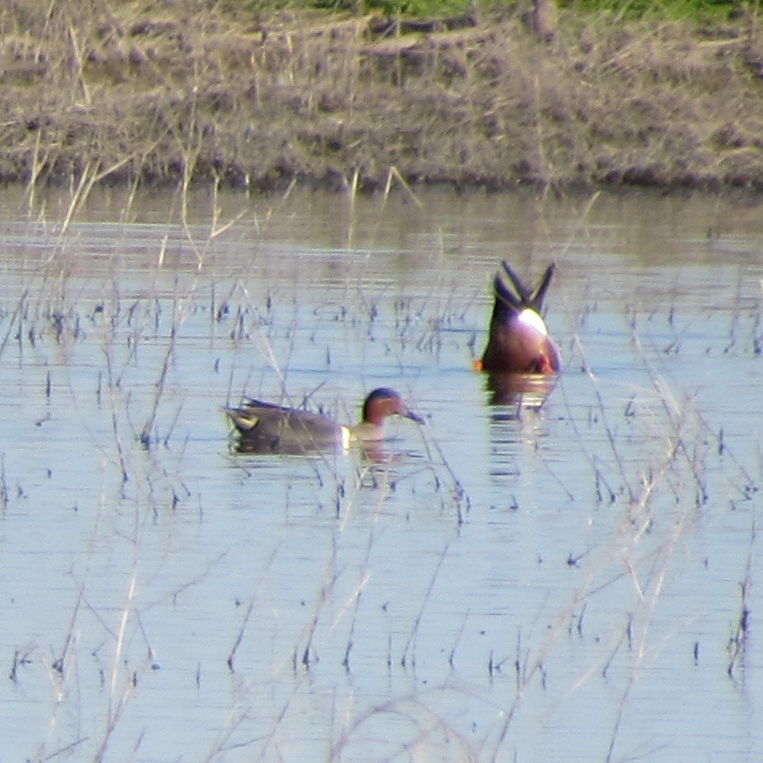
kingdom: Animalia
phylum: Chordata
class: Aves
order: Anseriformes
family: Anatidae
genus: Anas
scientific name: Anas crecca
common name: Eurasian teal
